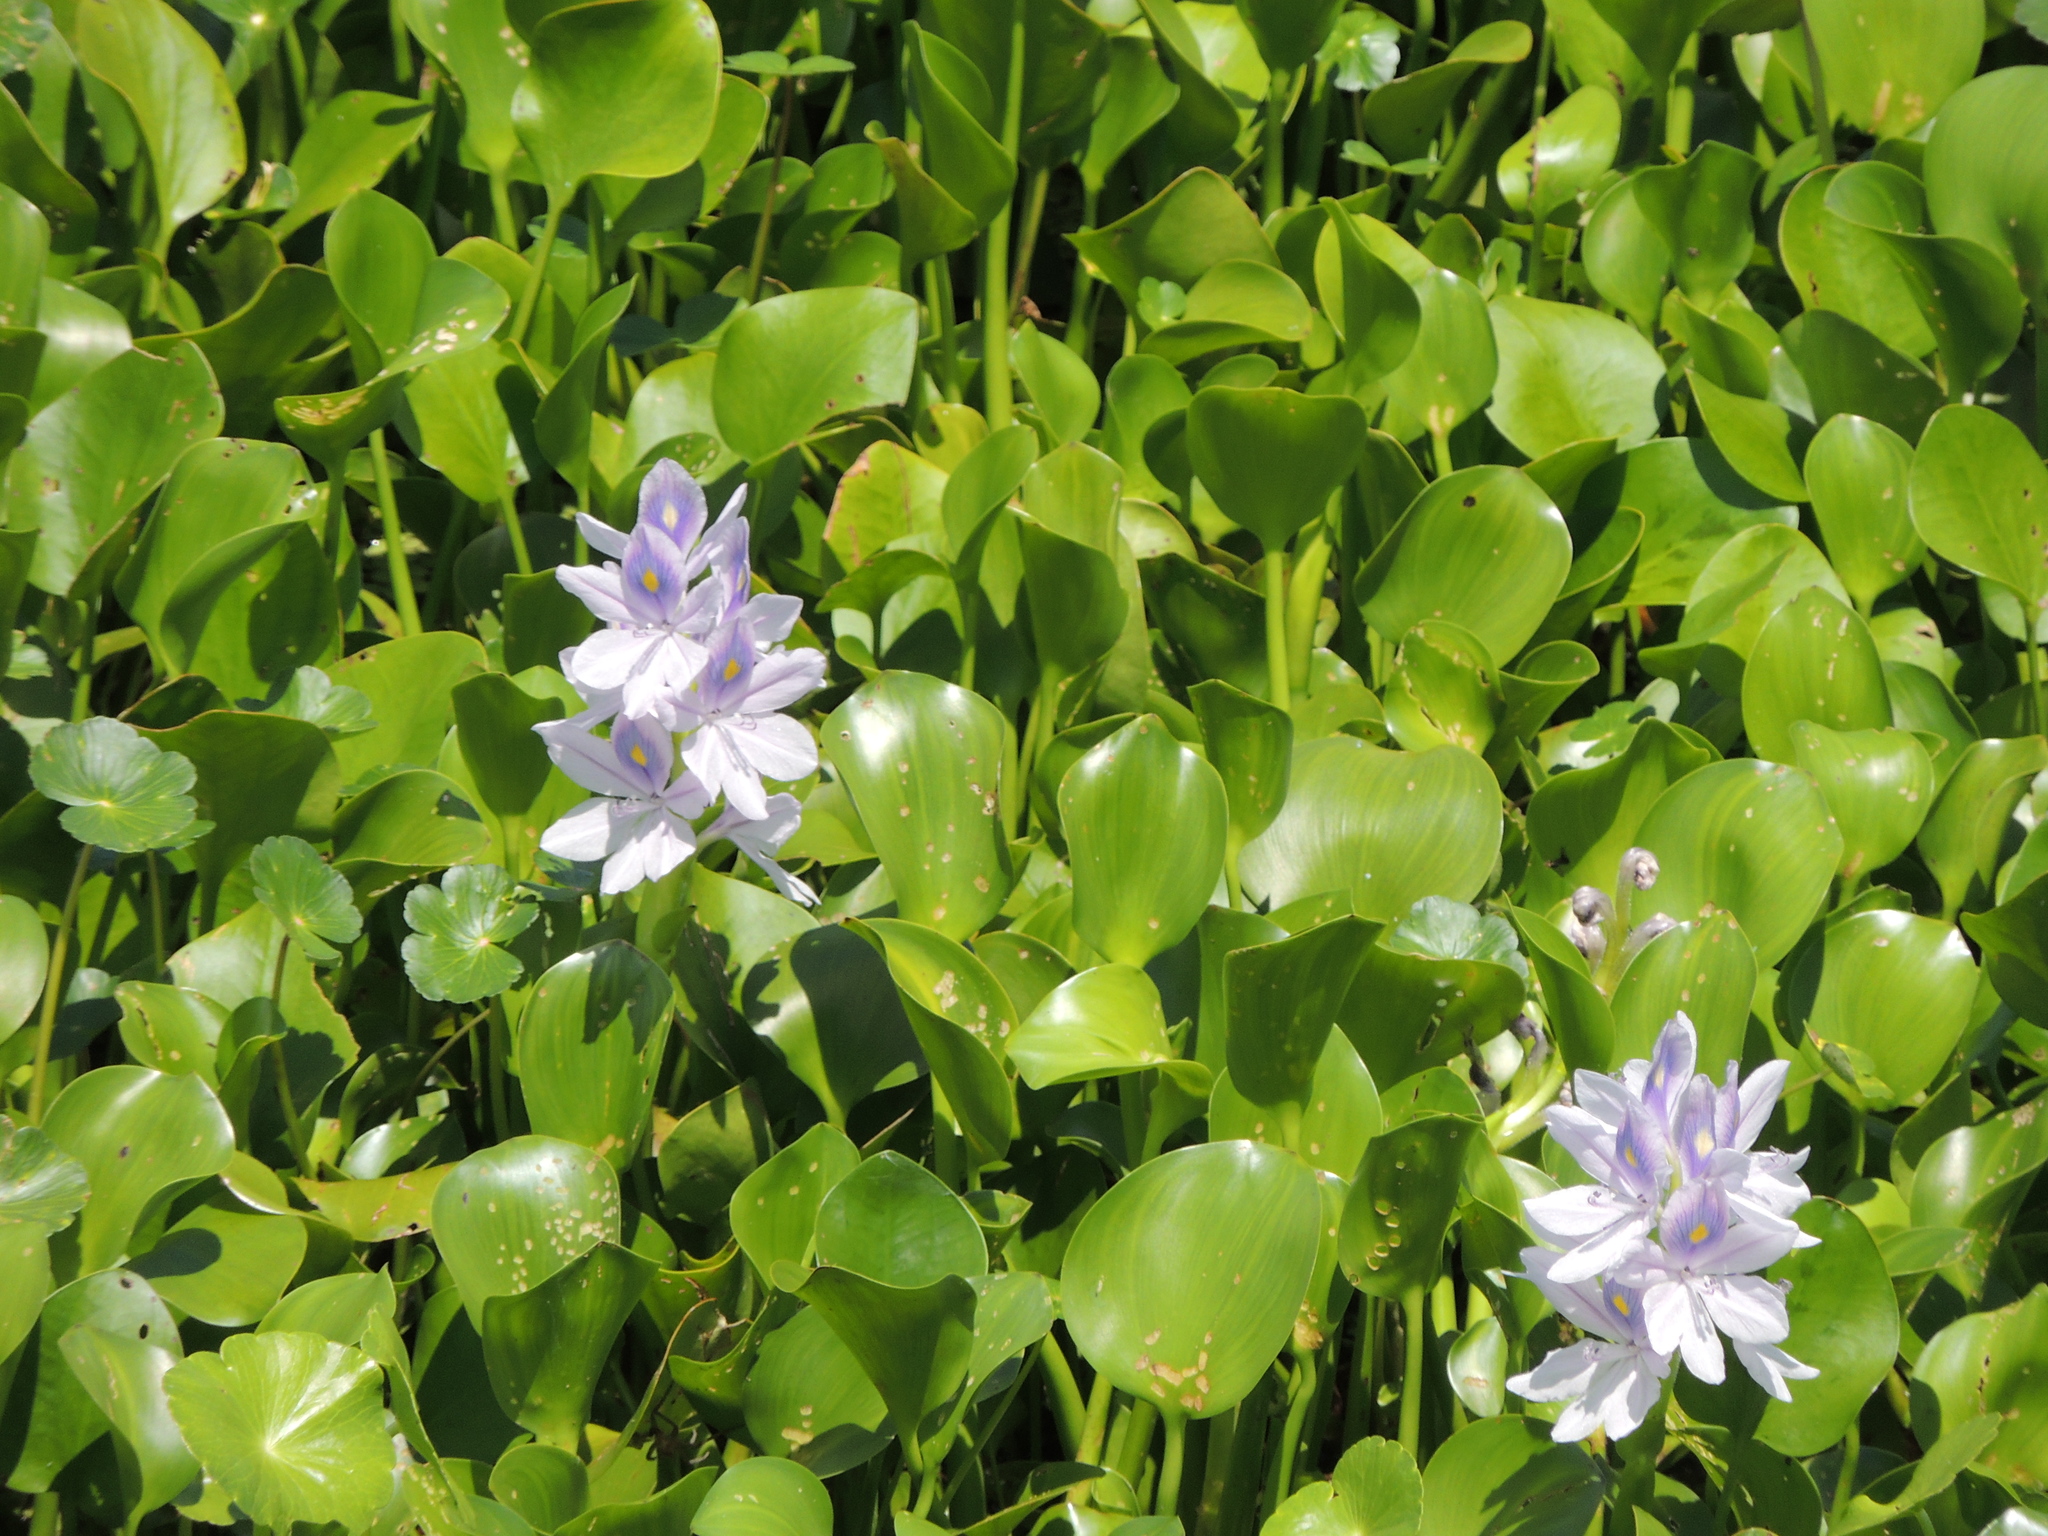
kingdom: Plantae
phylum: Tracheophyta
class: Liliopsida
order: Commelinales
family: Pontederiaceae
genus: Pontederia
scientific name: Pontederia crassipes
